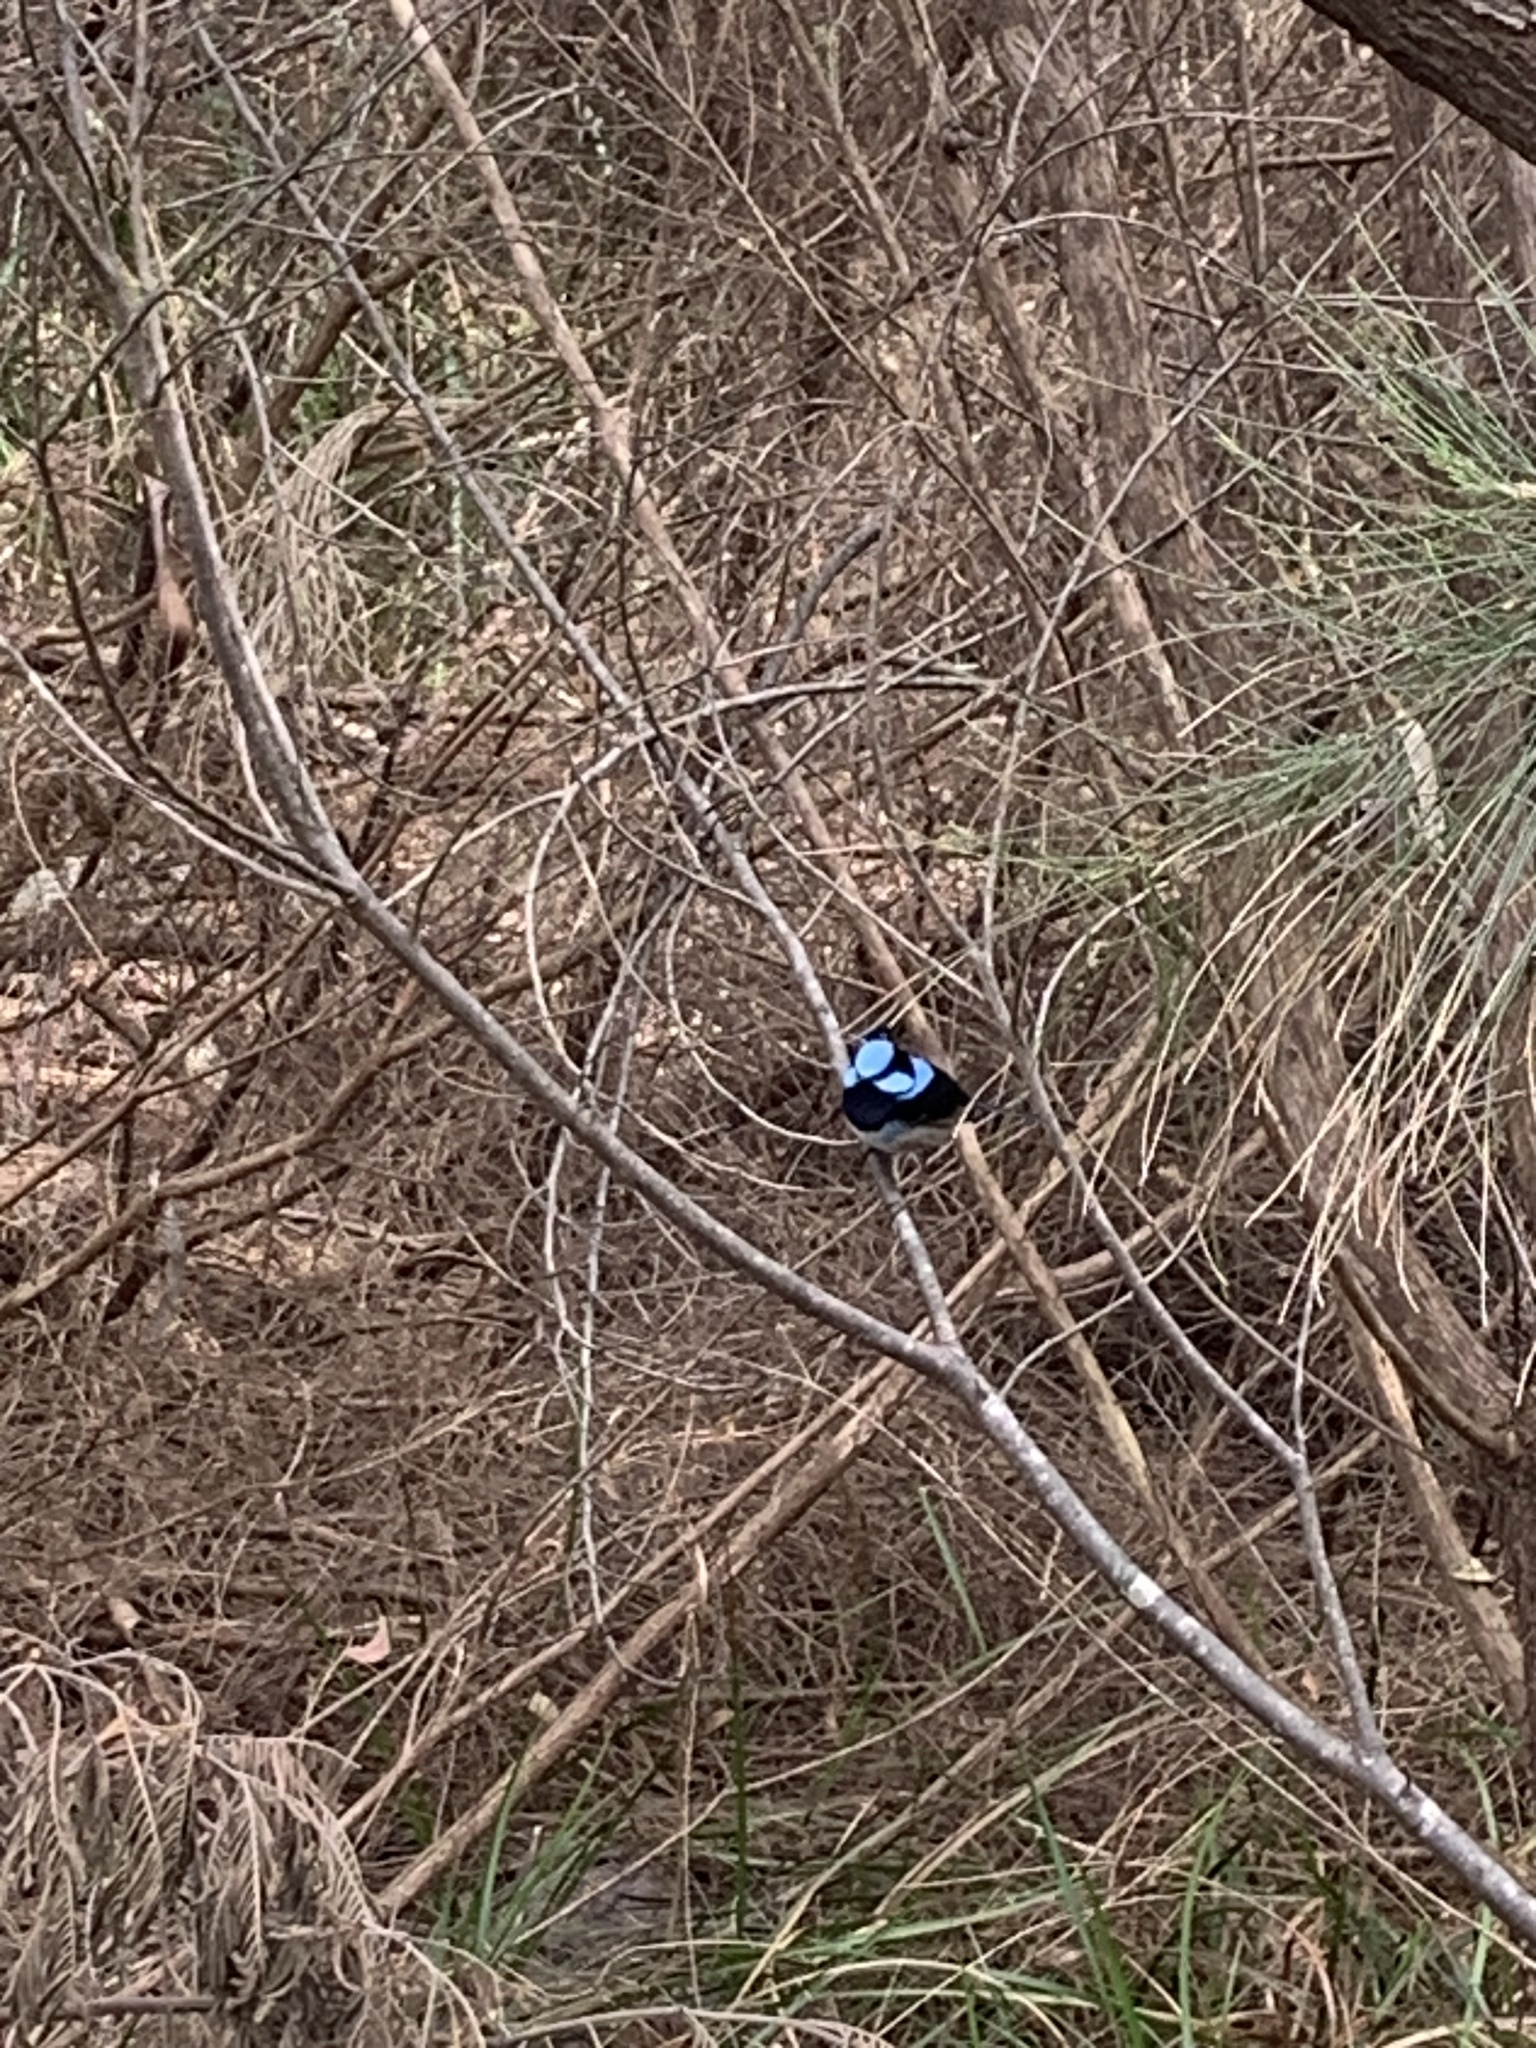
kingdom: Animalia
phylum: Chordata
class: Aves
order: Passeriformes
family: Maluridae
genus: Malurus
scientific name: Malurus cyaneus
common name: Superb fairywren
